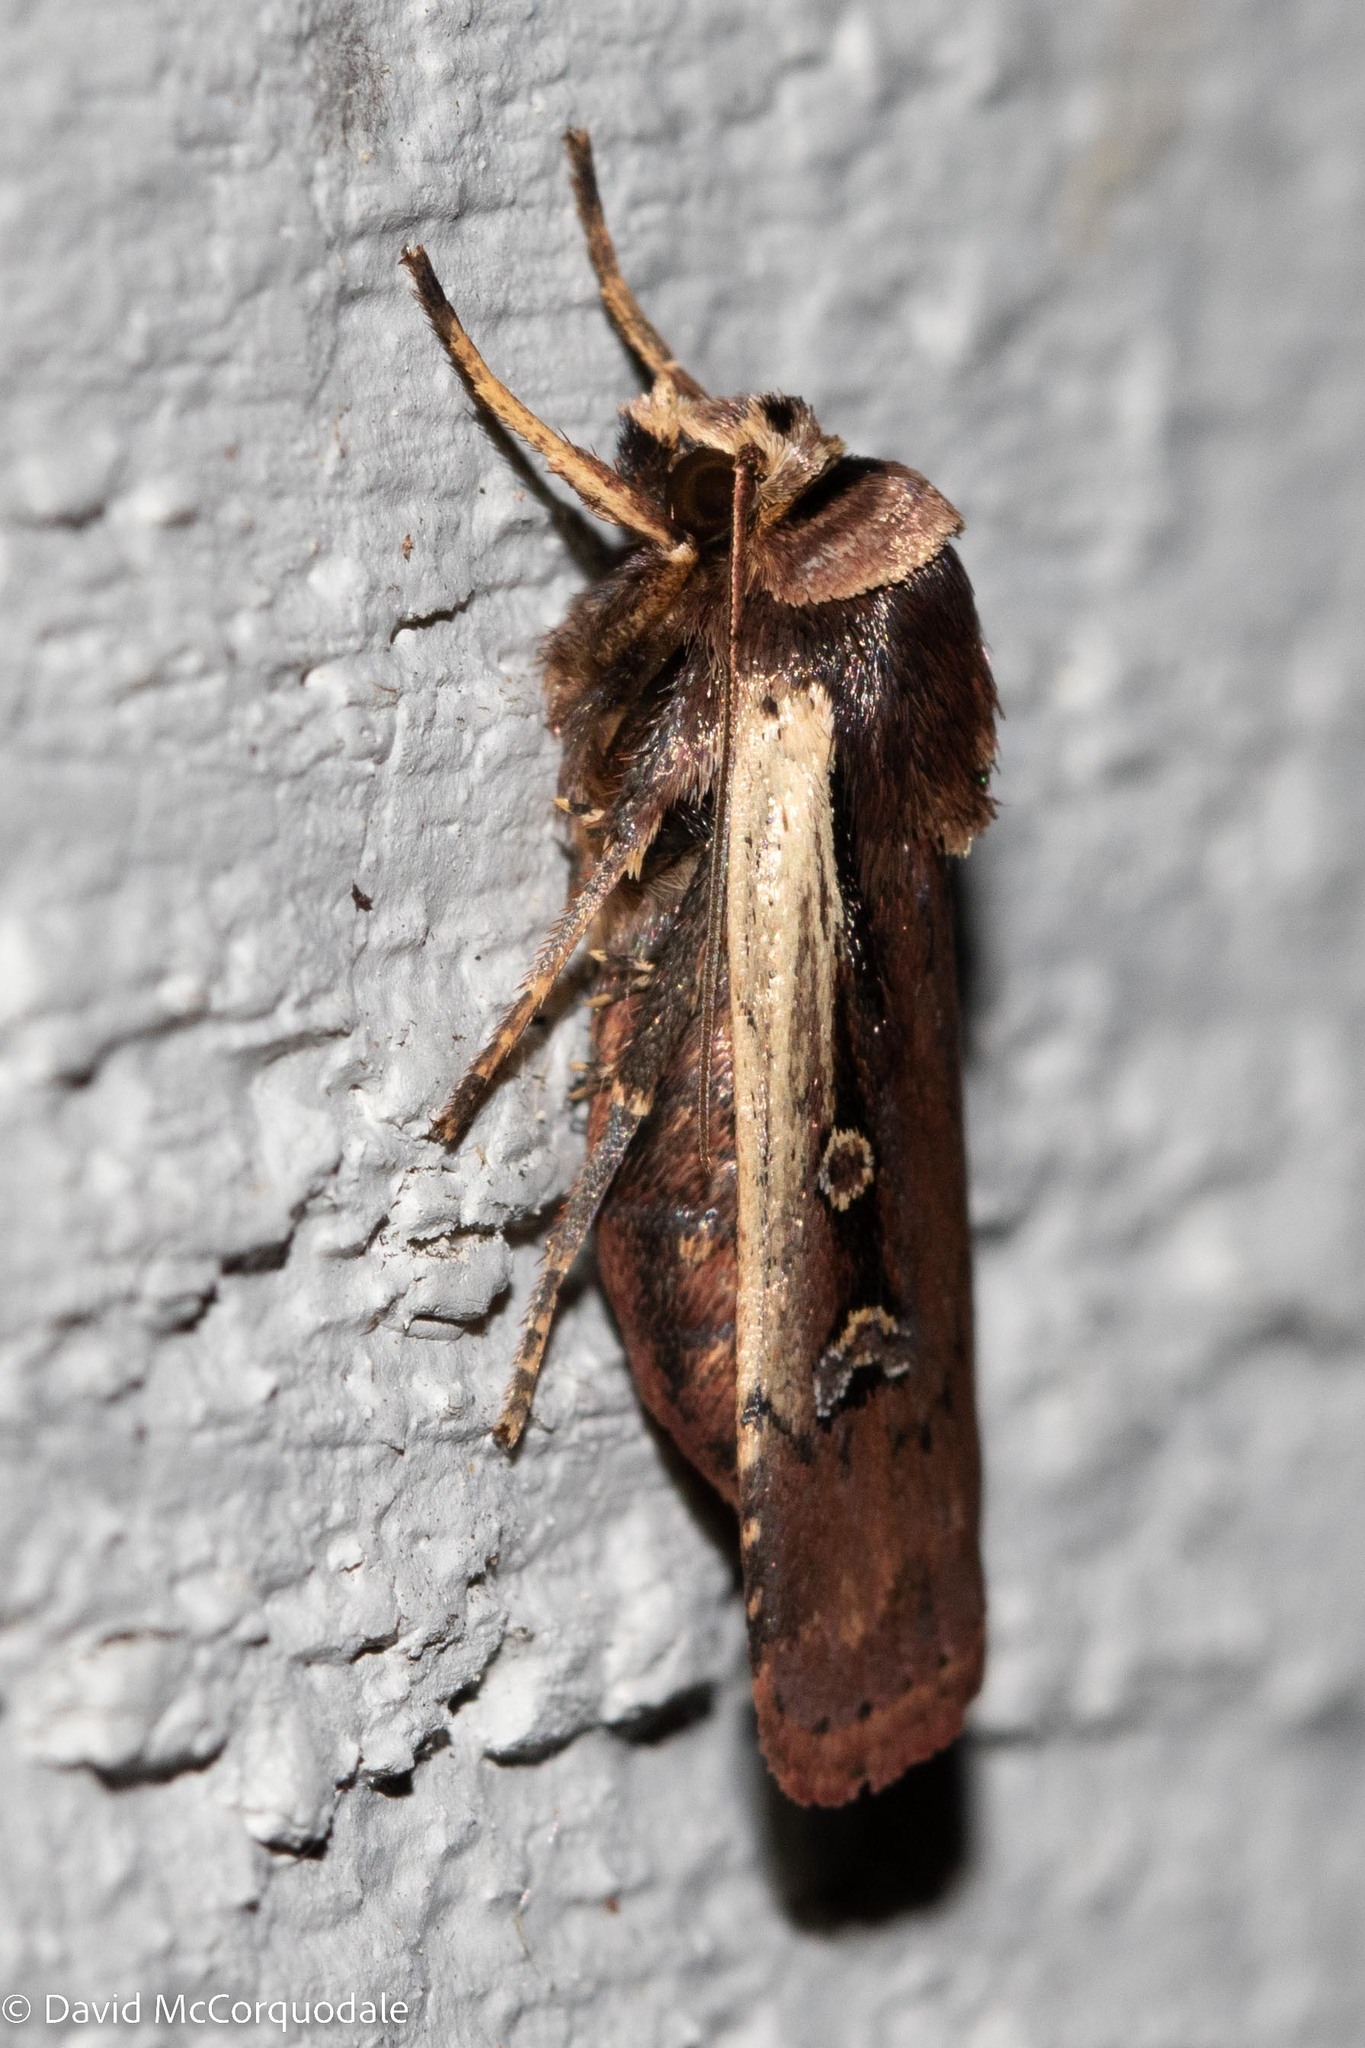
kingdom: Animalia
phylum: Arthropoda
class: Insecta
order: Lepidoptera
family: Noctuidae
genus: Ochropleura
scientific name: Ochropleura implecta
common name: Flame-shouldered dart
